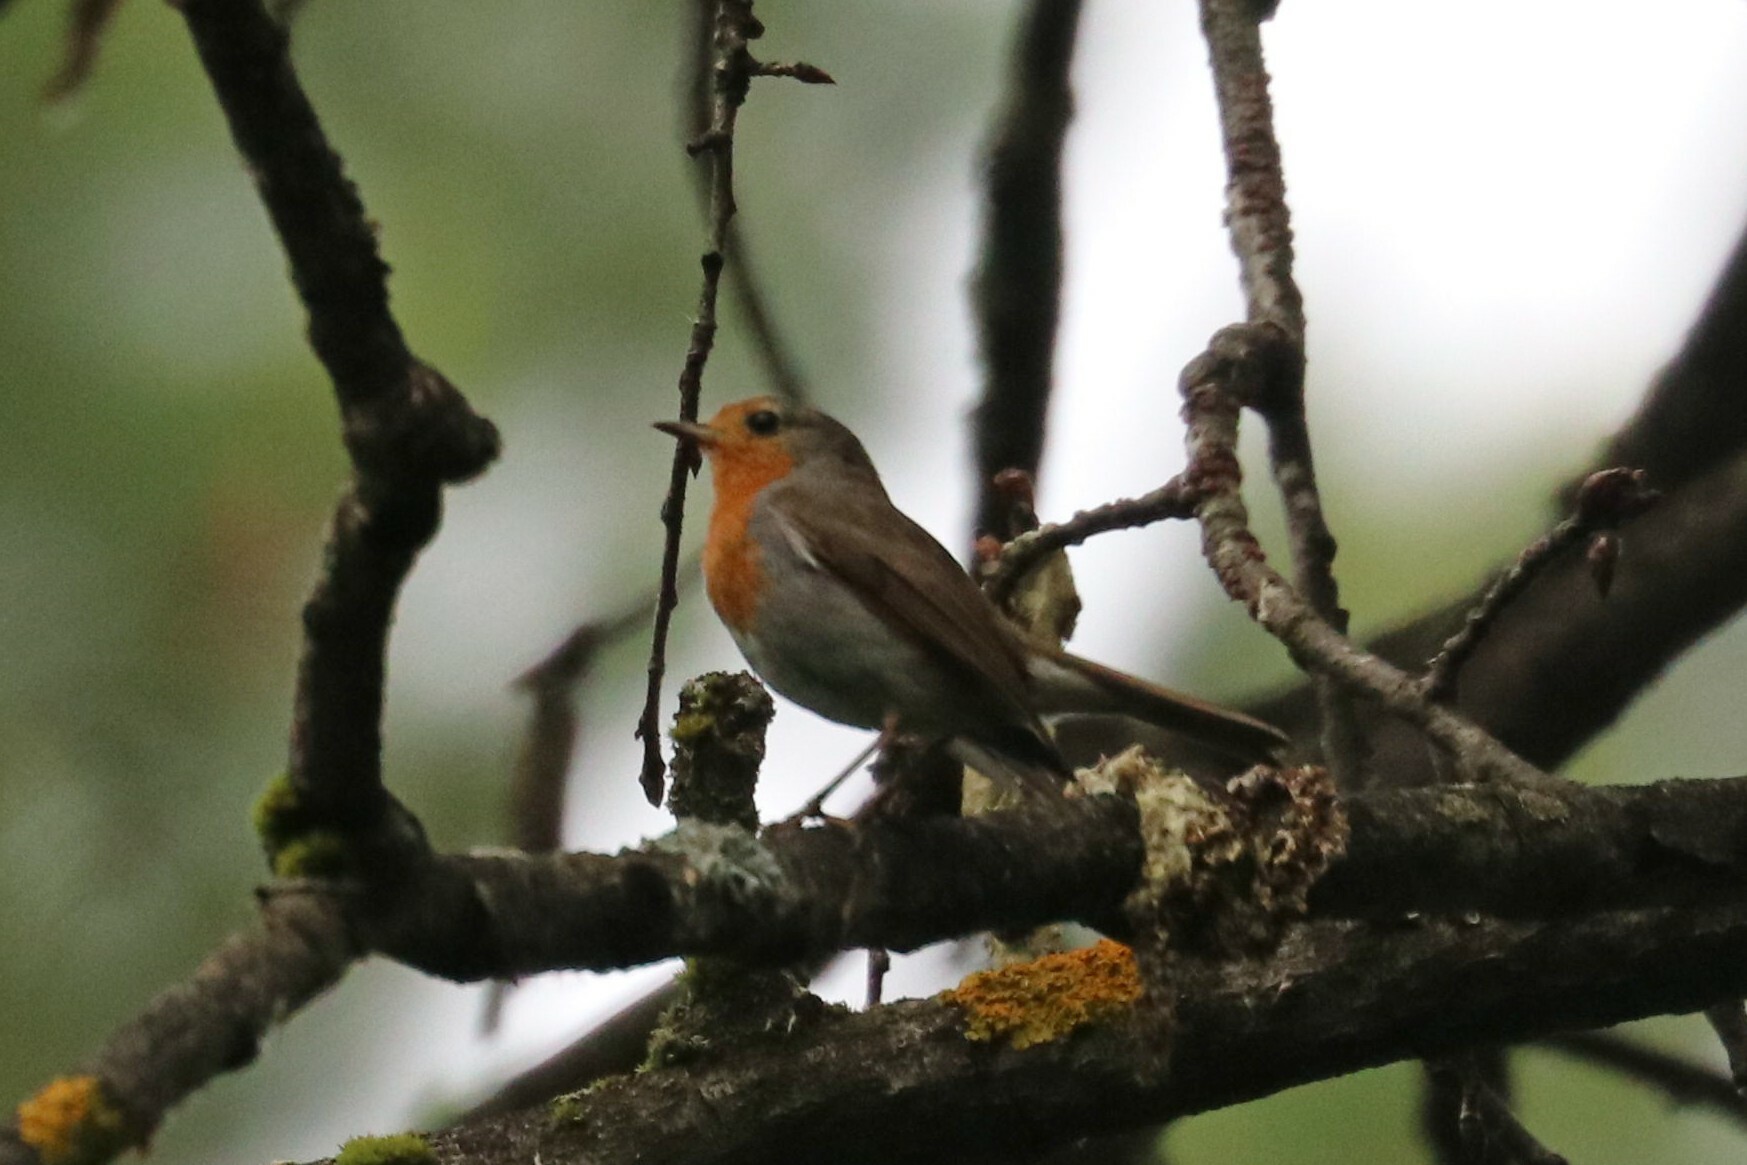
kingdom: Animalia
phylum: Chordata
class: Aves
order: Passeriformes
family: Muscicapidae
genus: Erithacus
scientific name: Erithacus rubecula
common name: European robin
